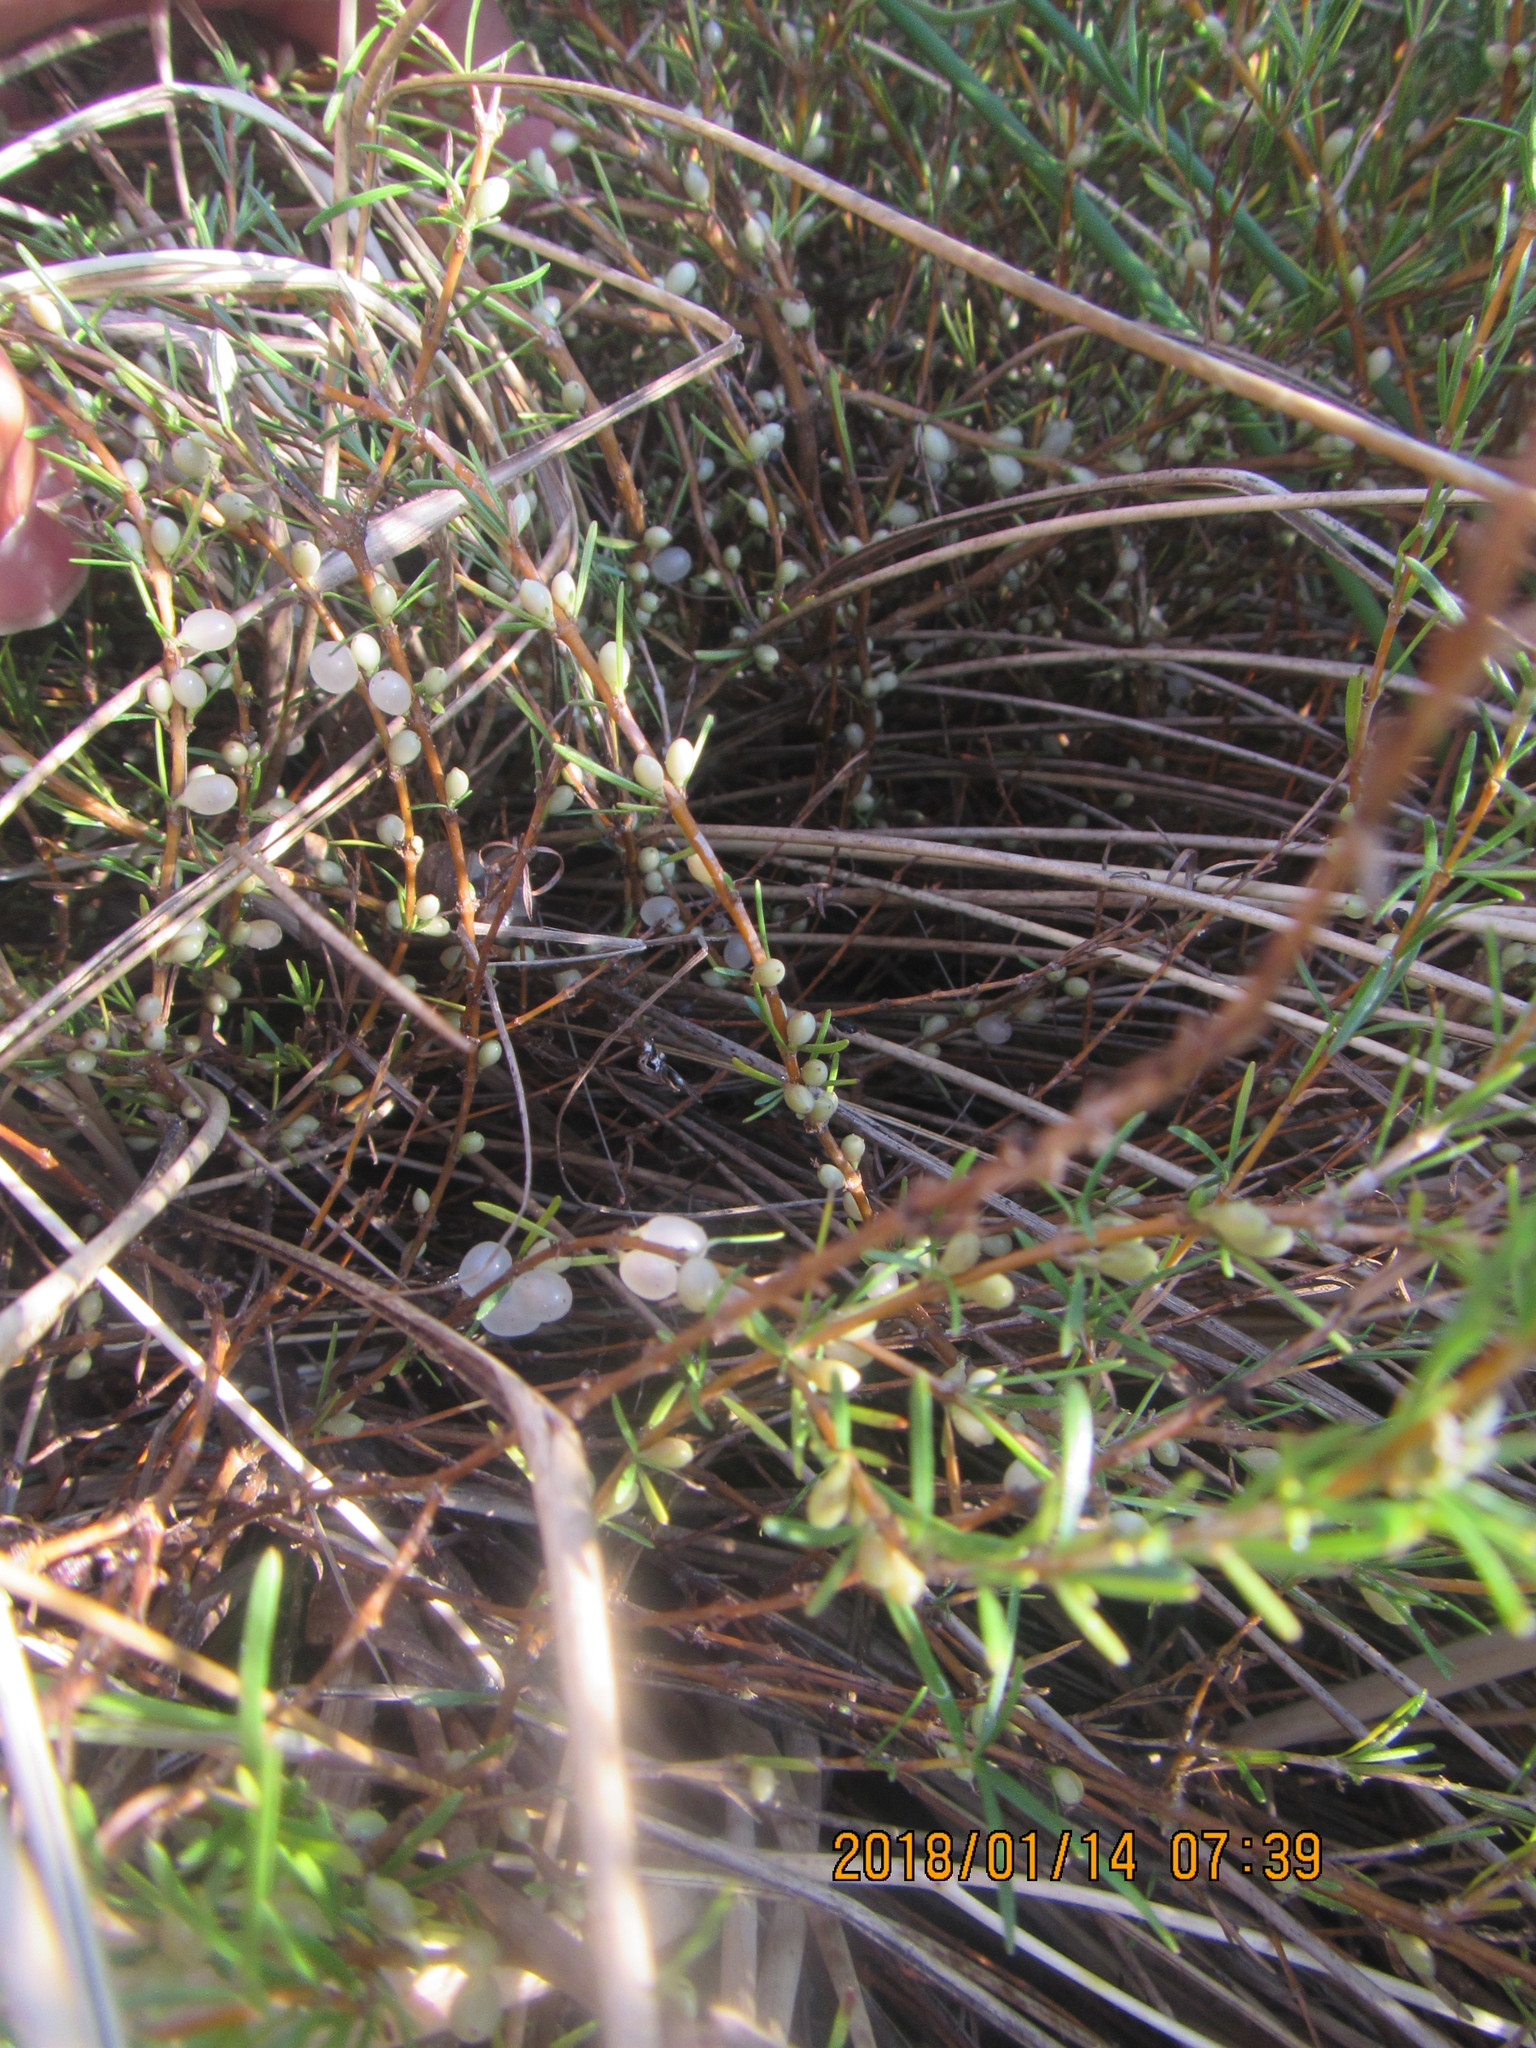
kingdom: Plantae
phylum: Tracheophyta
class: Magnoliopsida
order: Gentianales
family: Rubiaceae
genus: Coprosma
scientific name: Coprosma acerosa
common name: Sand coprosma
